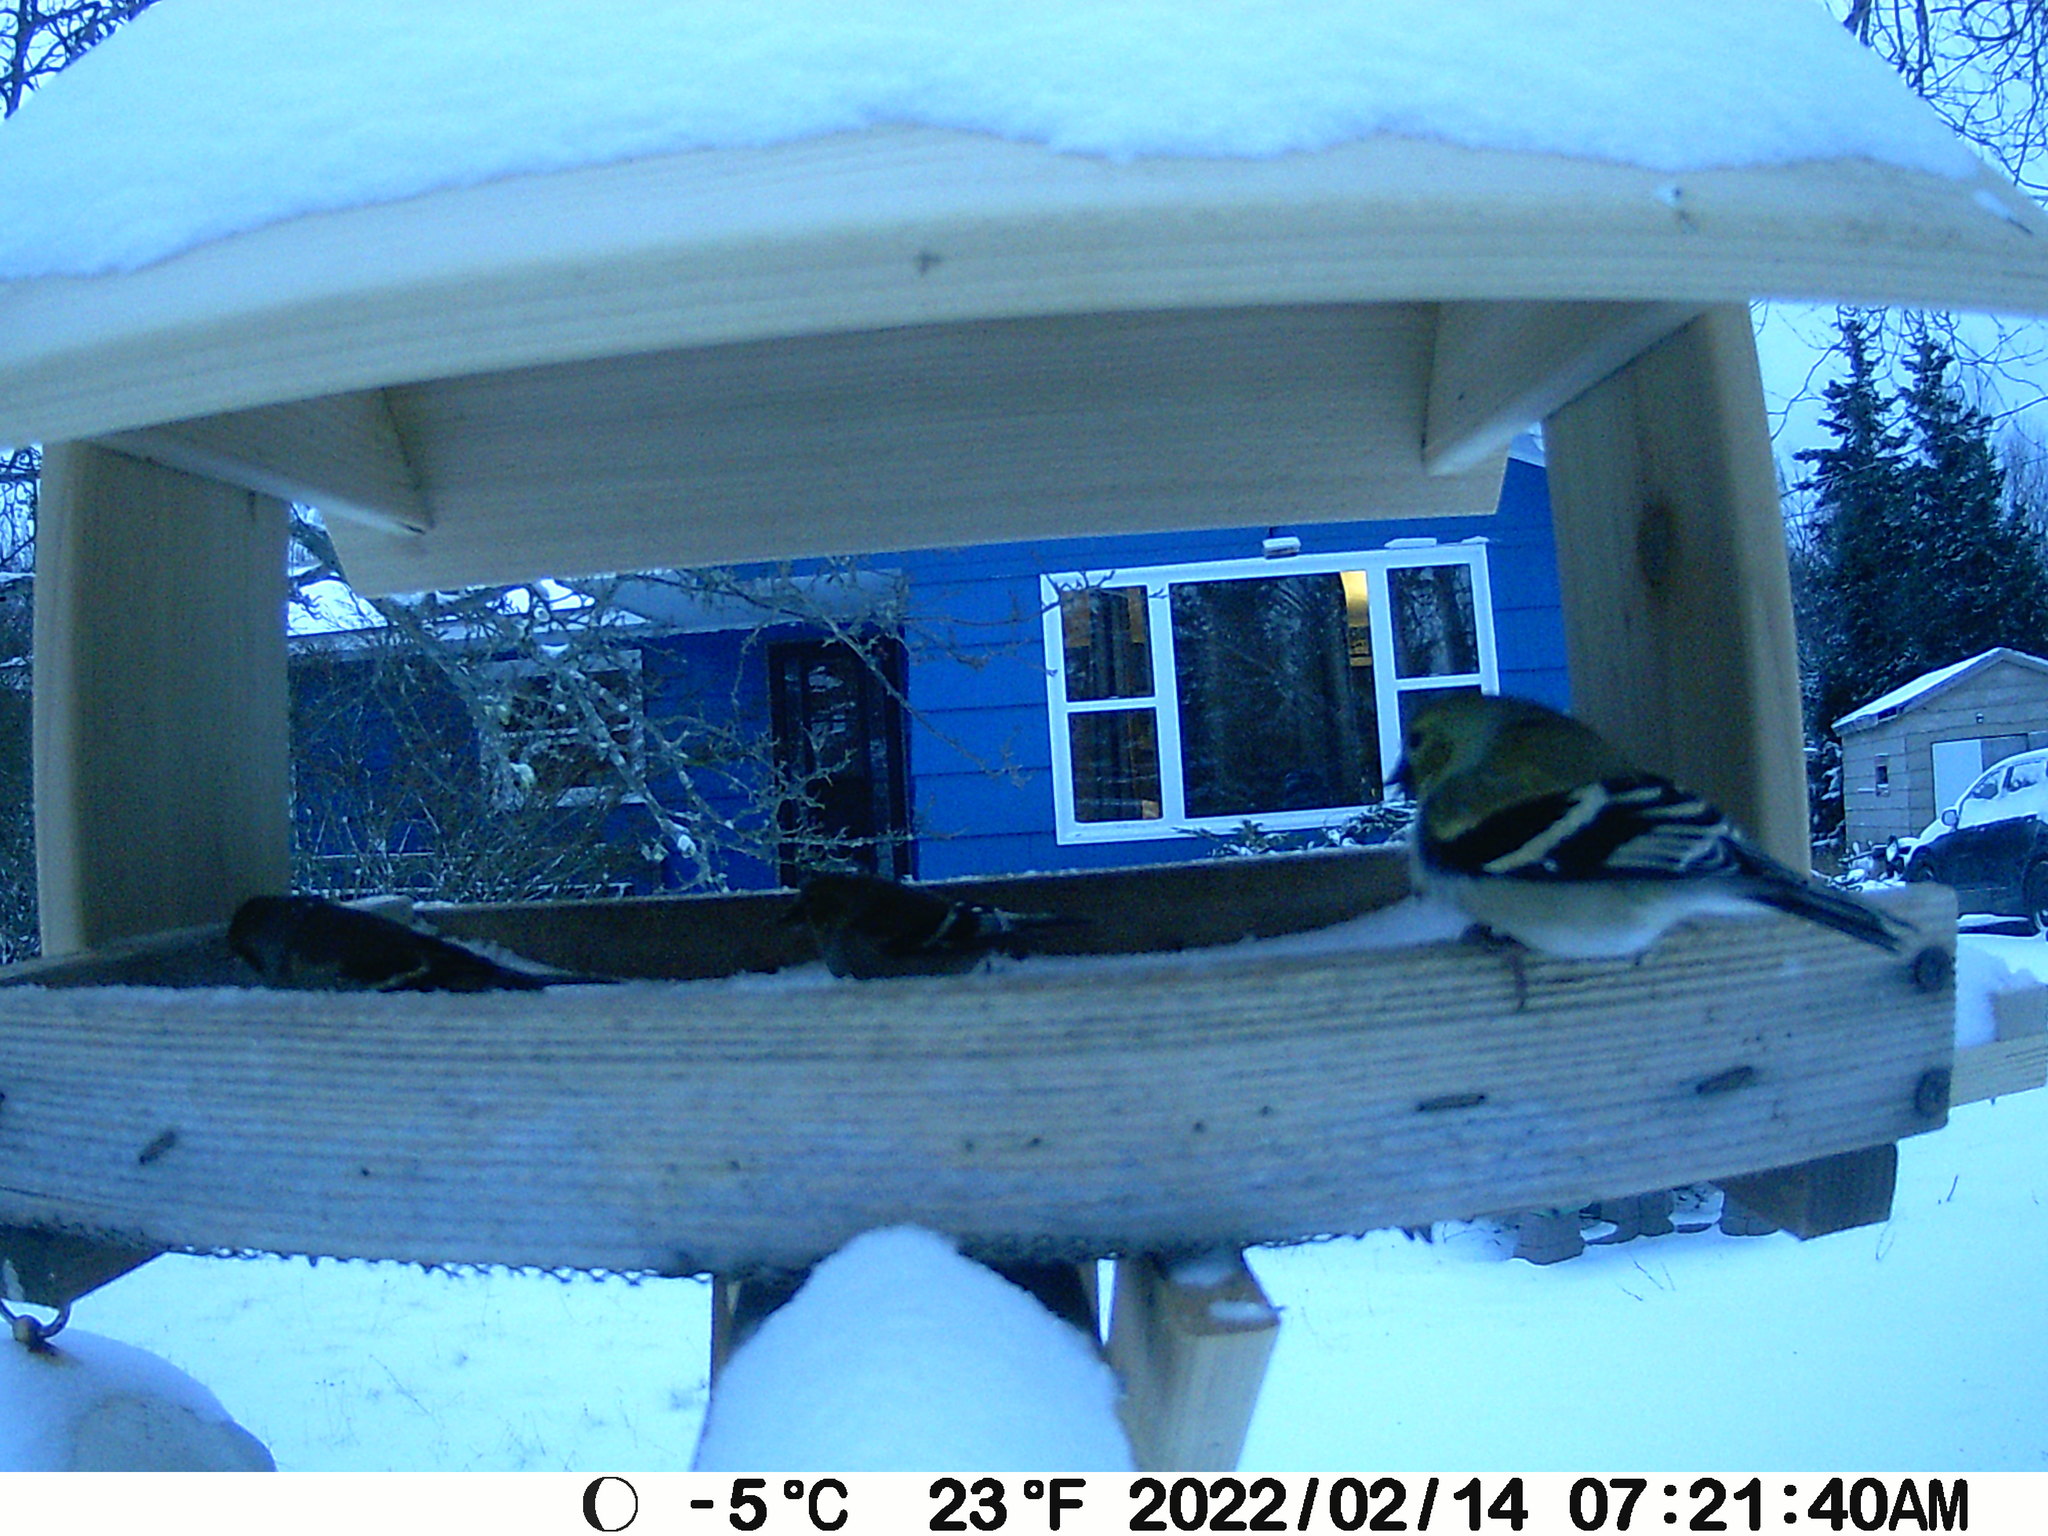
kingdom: Animalia
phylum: Chordata
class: Aves
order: Passeriformes
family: Fringillidae
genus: Spinus
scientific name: Spinus tristis
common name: American goldfinch
